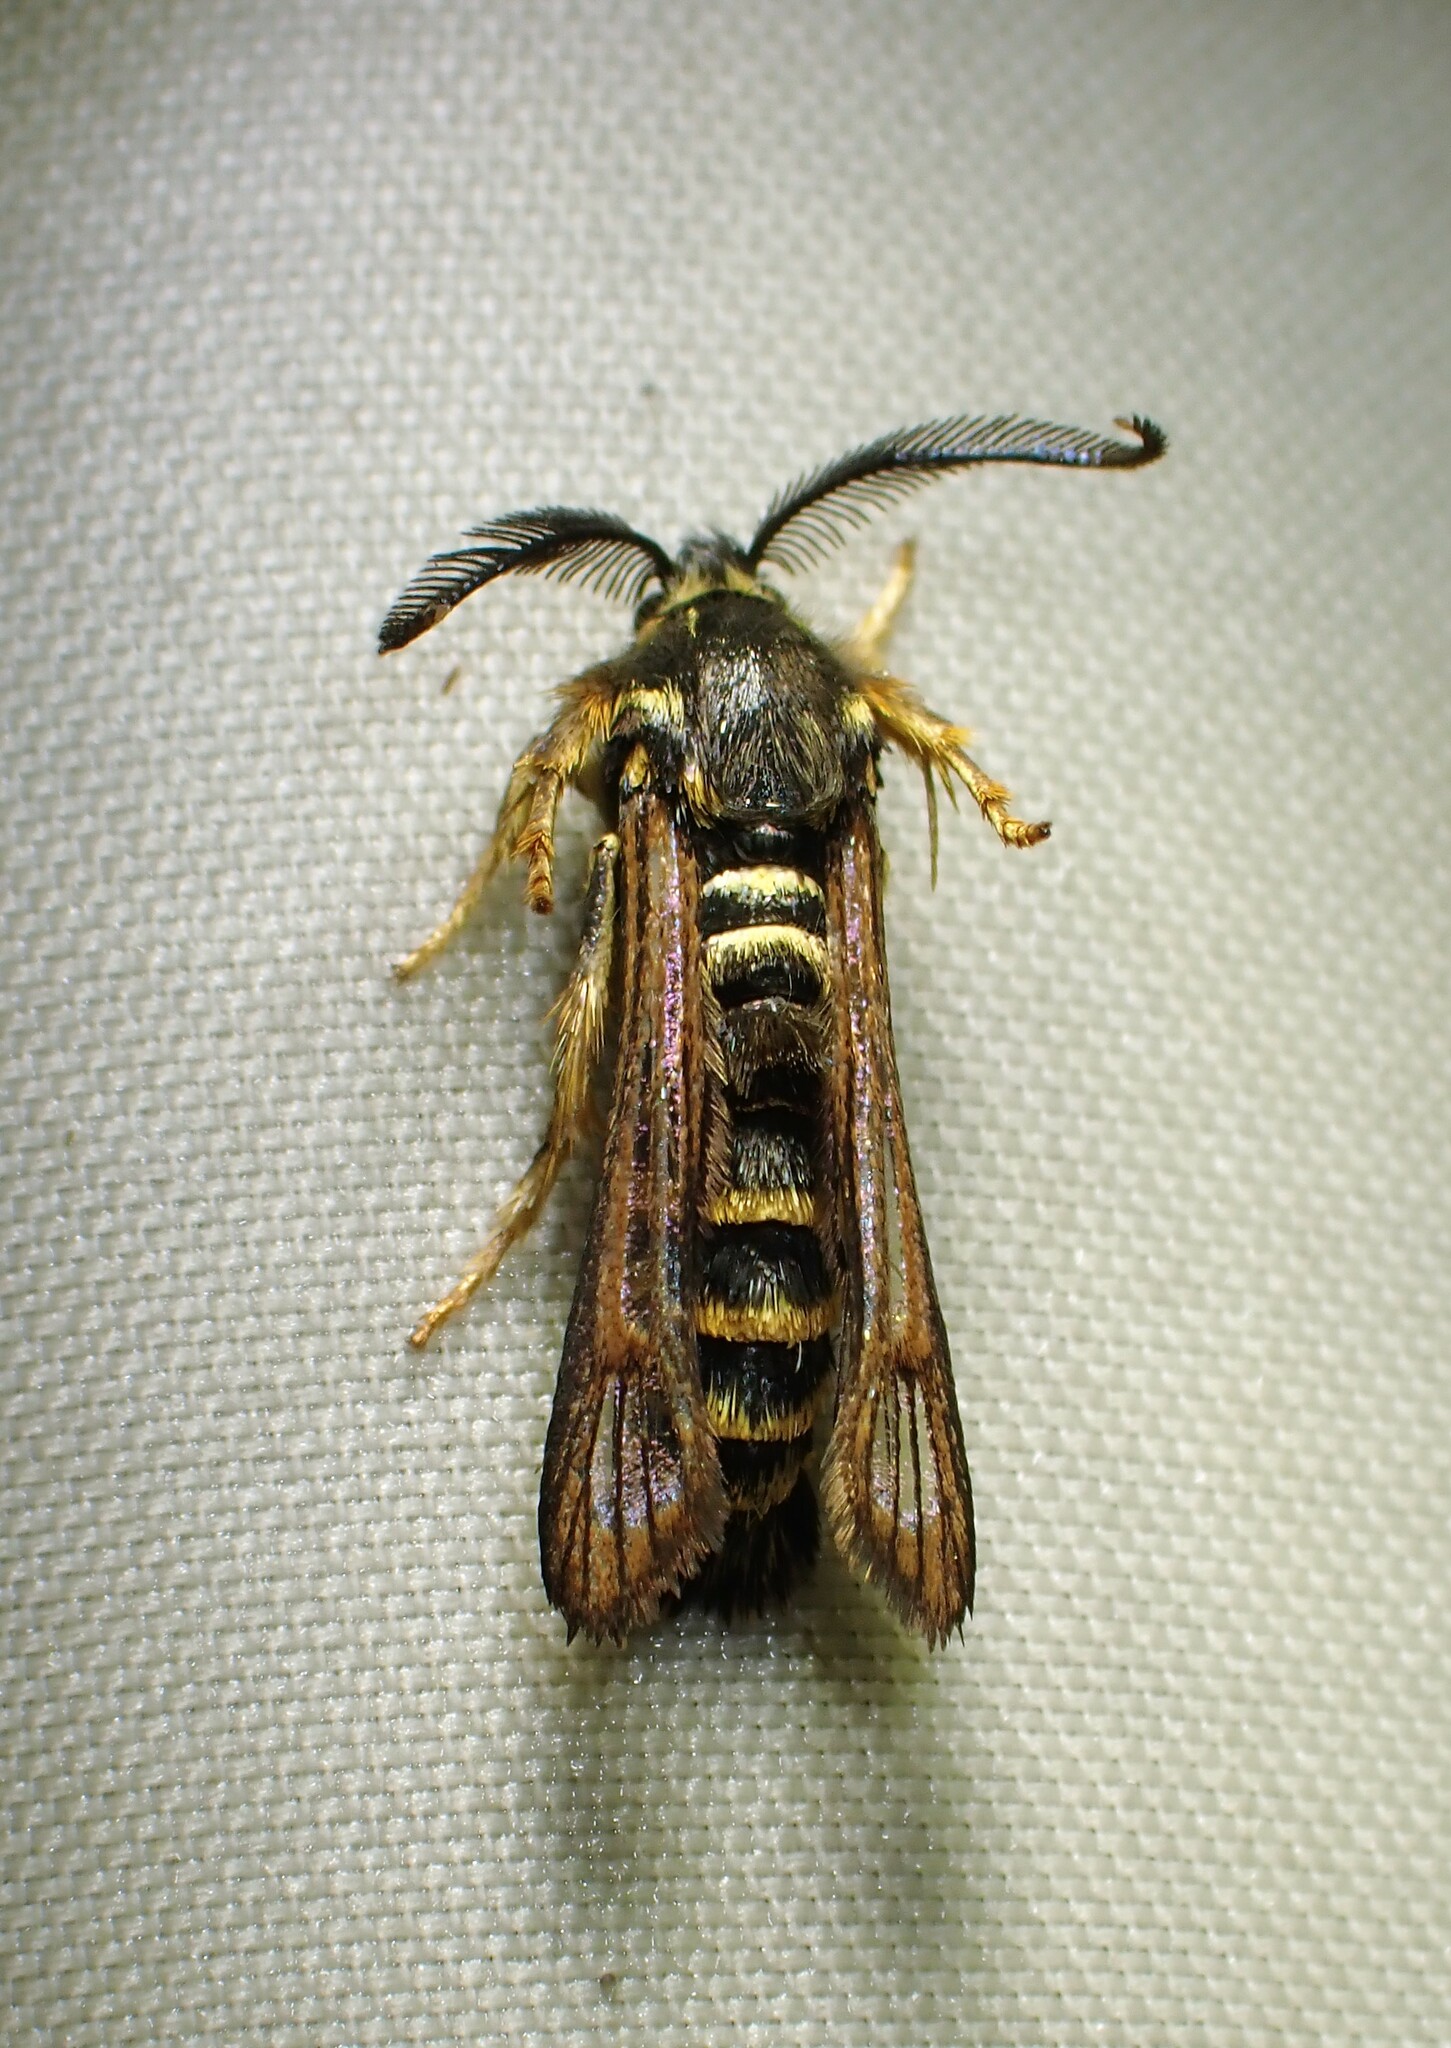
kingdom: Animalia
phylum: Arthropoda
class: Insecta
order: Lepidoptera
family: Sesiidae
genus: Pennisetia
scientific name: Pennisetia marginatum
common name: Raspberry crown borer
